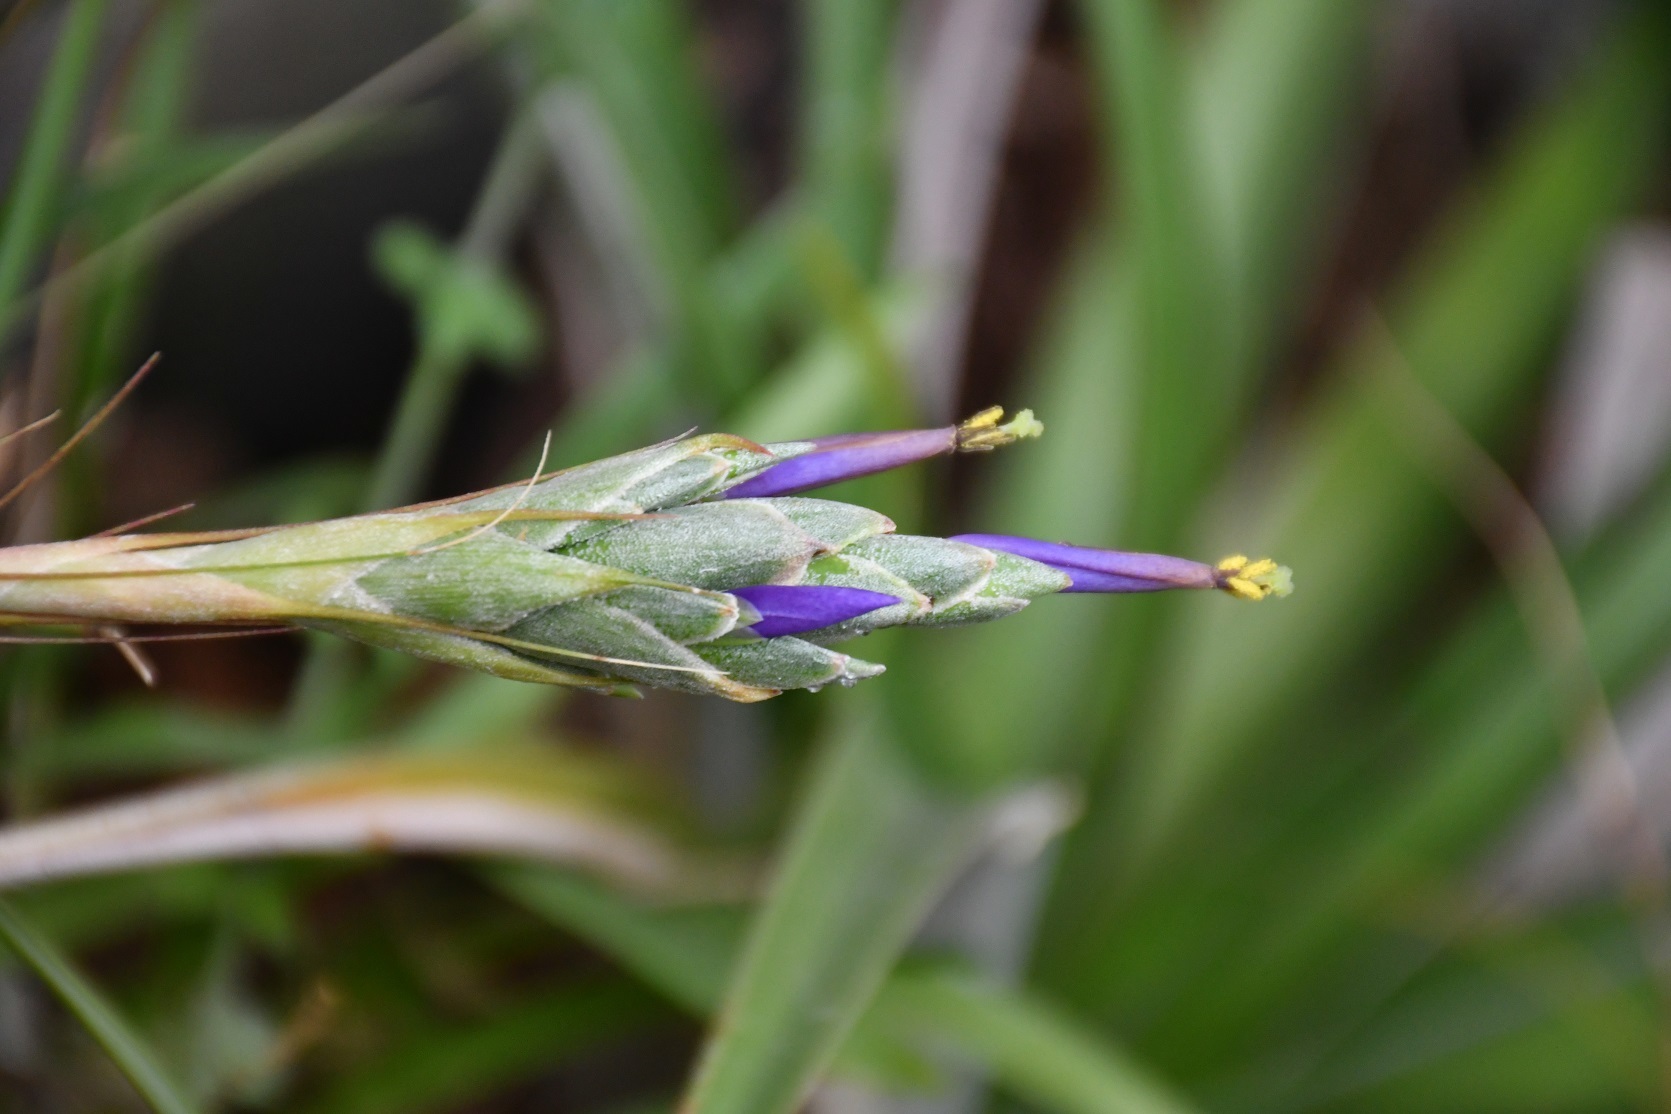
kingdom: Plantae
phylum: Tracheophyta
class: Liliopsida
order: Poales
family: Bromeliaceae
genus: Tillandsia
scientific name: Tillandsia juncea
